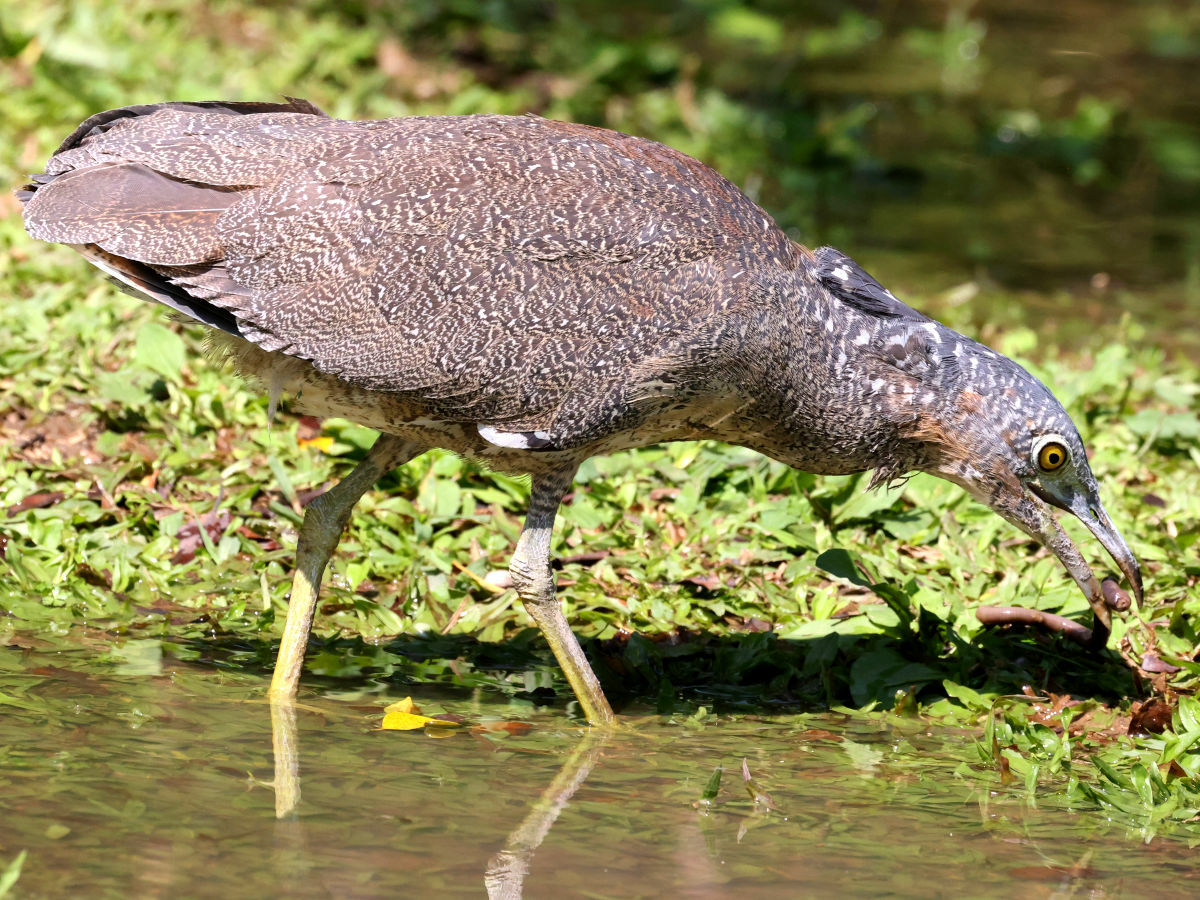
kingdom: Animalia
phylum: Chordata
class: Aves
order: Pelecaniformes
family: Ardeidae
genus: Gorsachius
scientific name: Gorsachius melanolophus
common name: Malayan night heron
